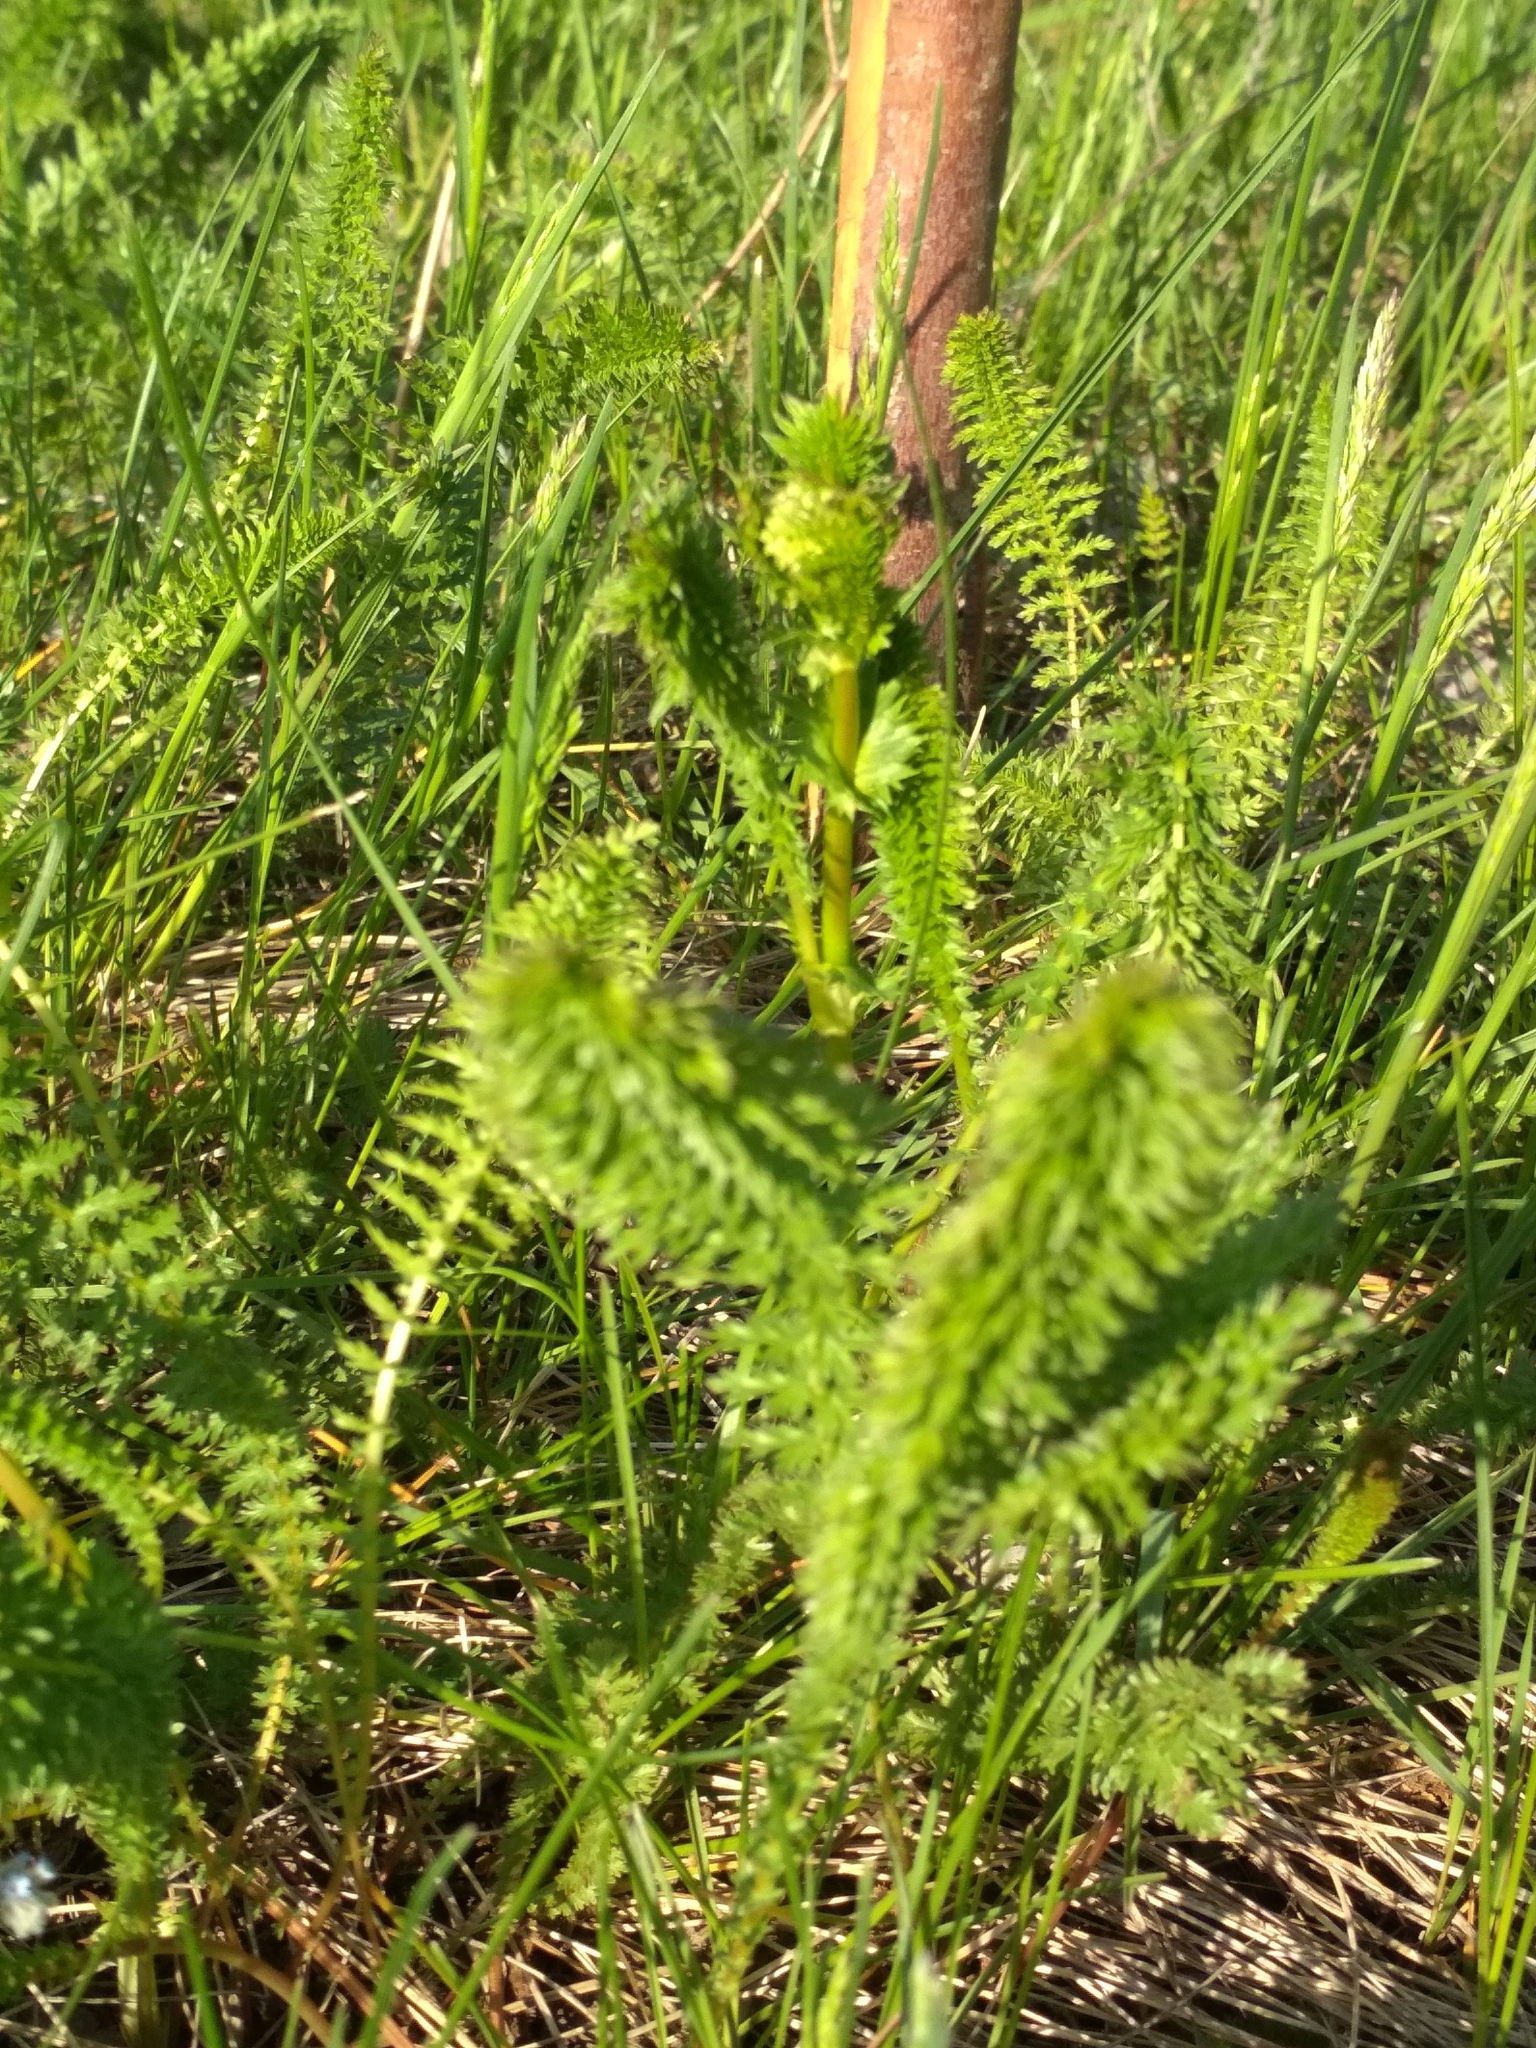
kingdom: Plantae
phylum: Tracheophyta
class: Magnoliopsida
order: Rosales
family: Rosaceae
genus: Filipendula
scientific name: Filipendula vulgaris
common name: Dropwort
